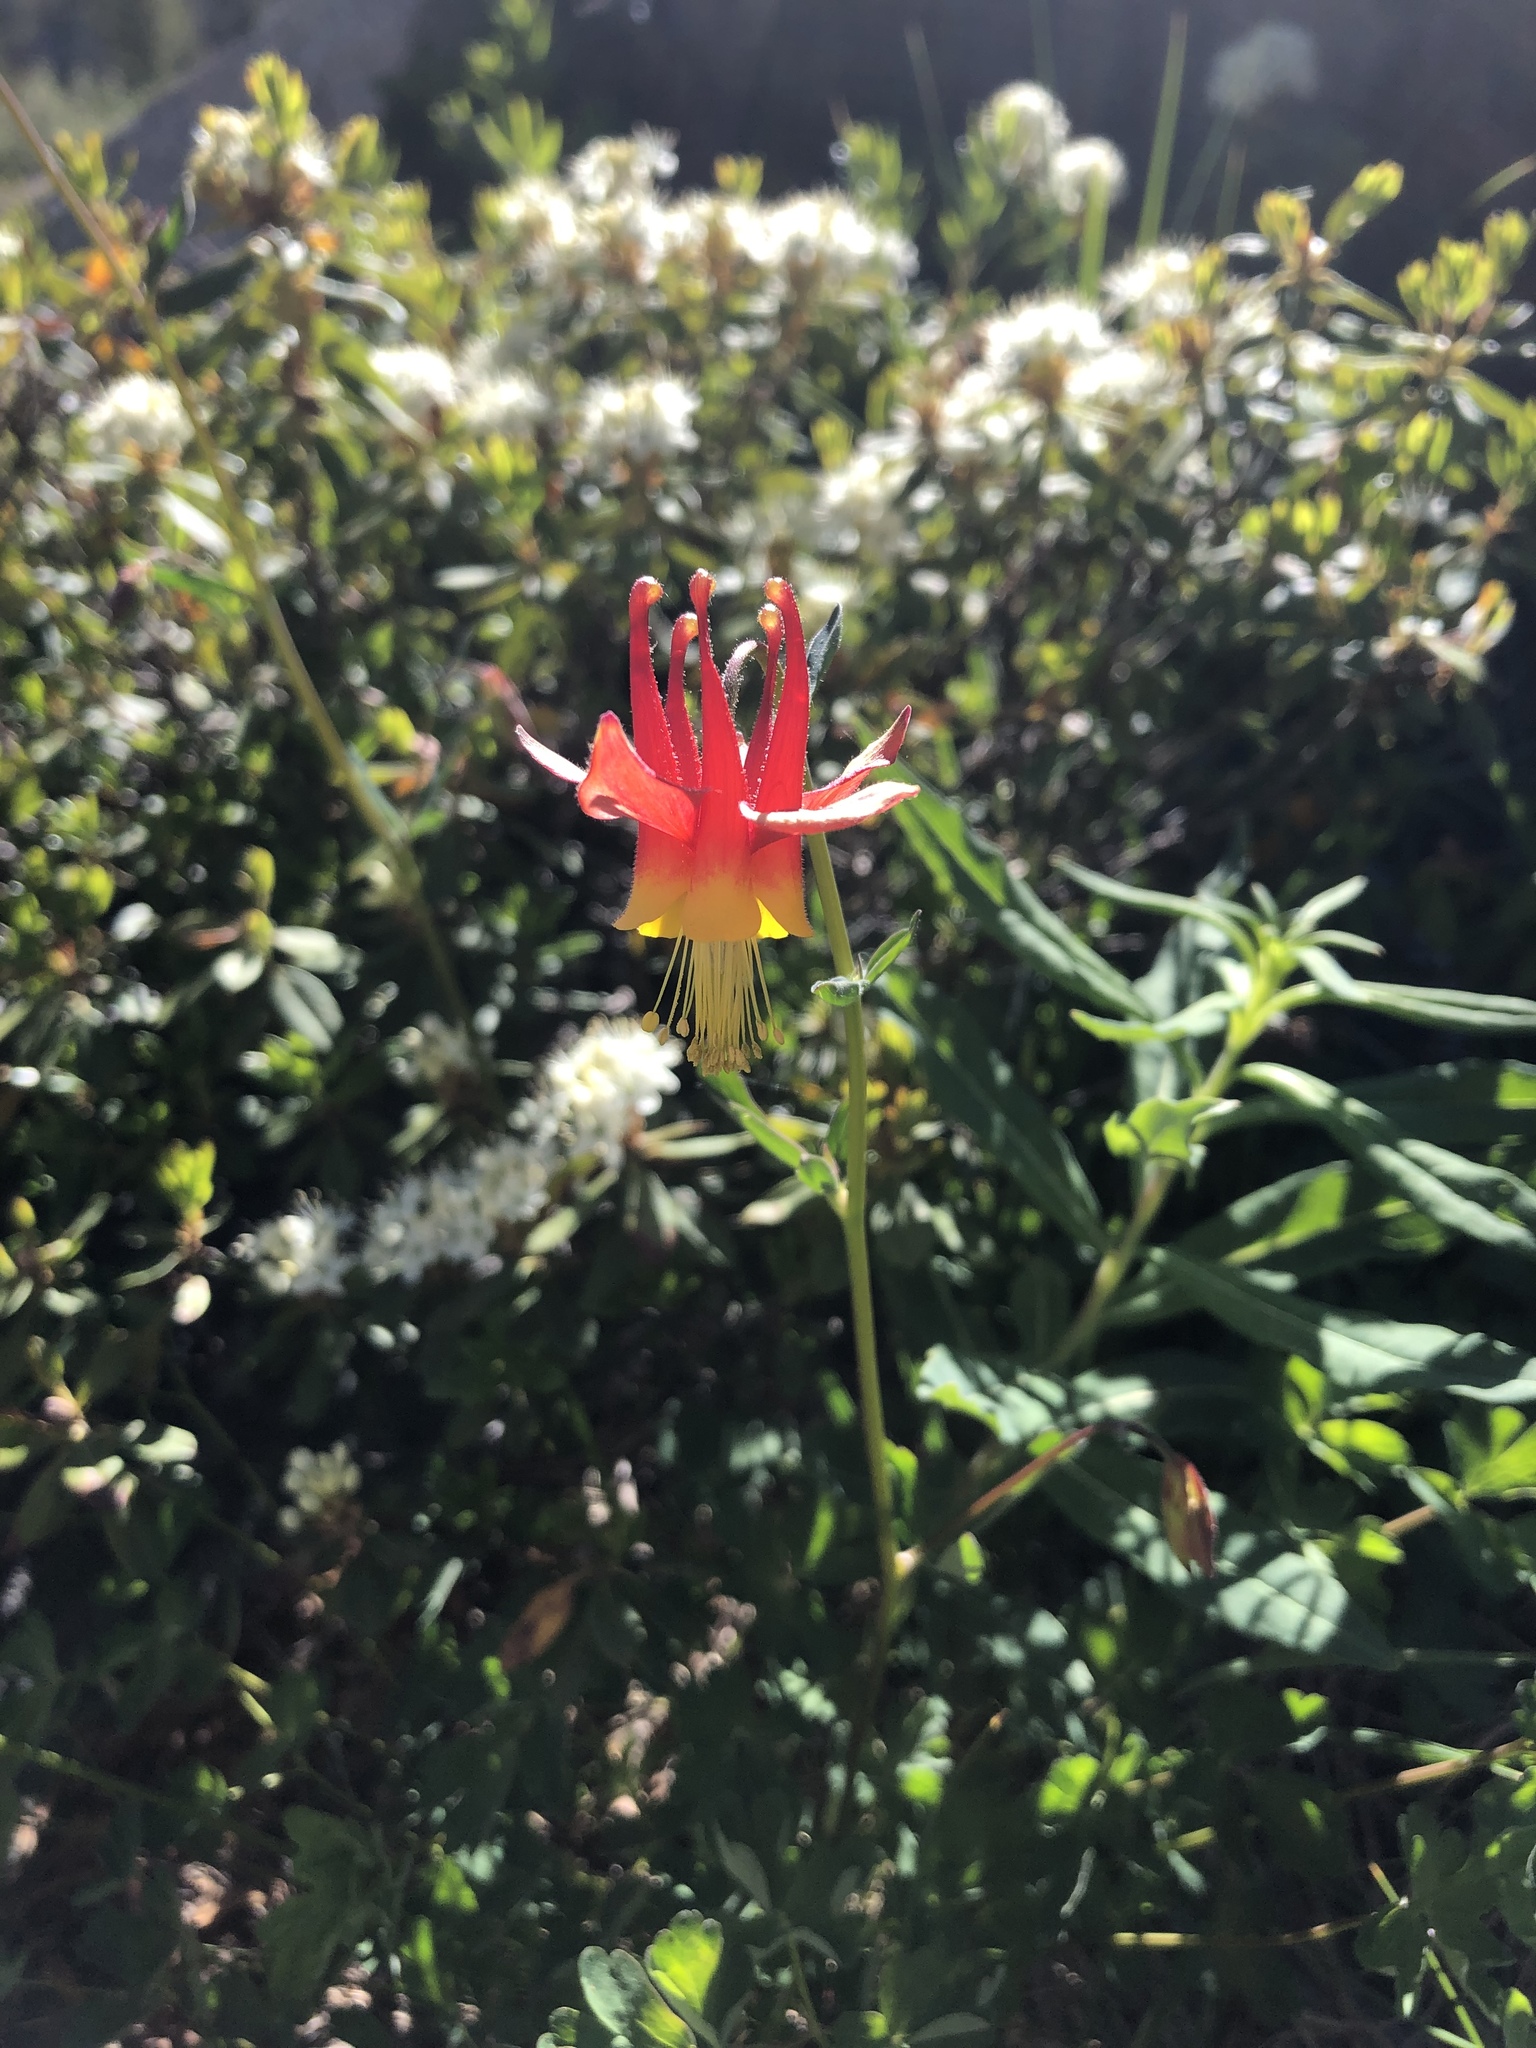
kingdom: Plantae
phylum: Tracheophyta
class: Magnoliopsida
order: Ranunculales
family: Ranunculaceae
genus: Aquilegia
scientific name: Aquilegia formosa
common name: Sitka columbine
